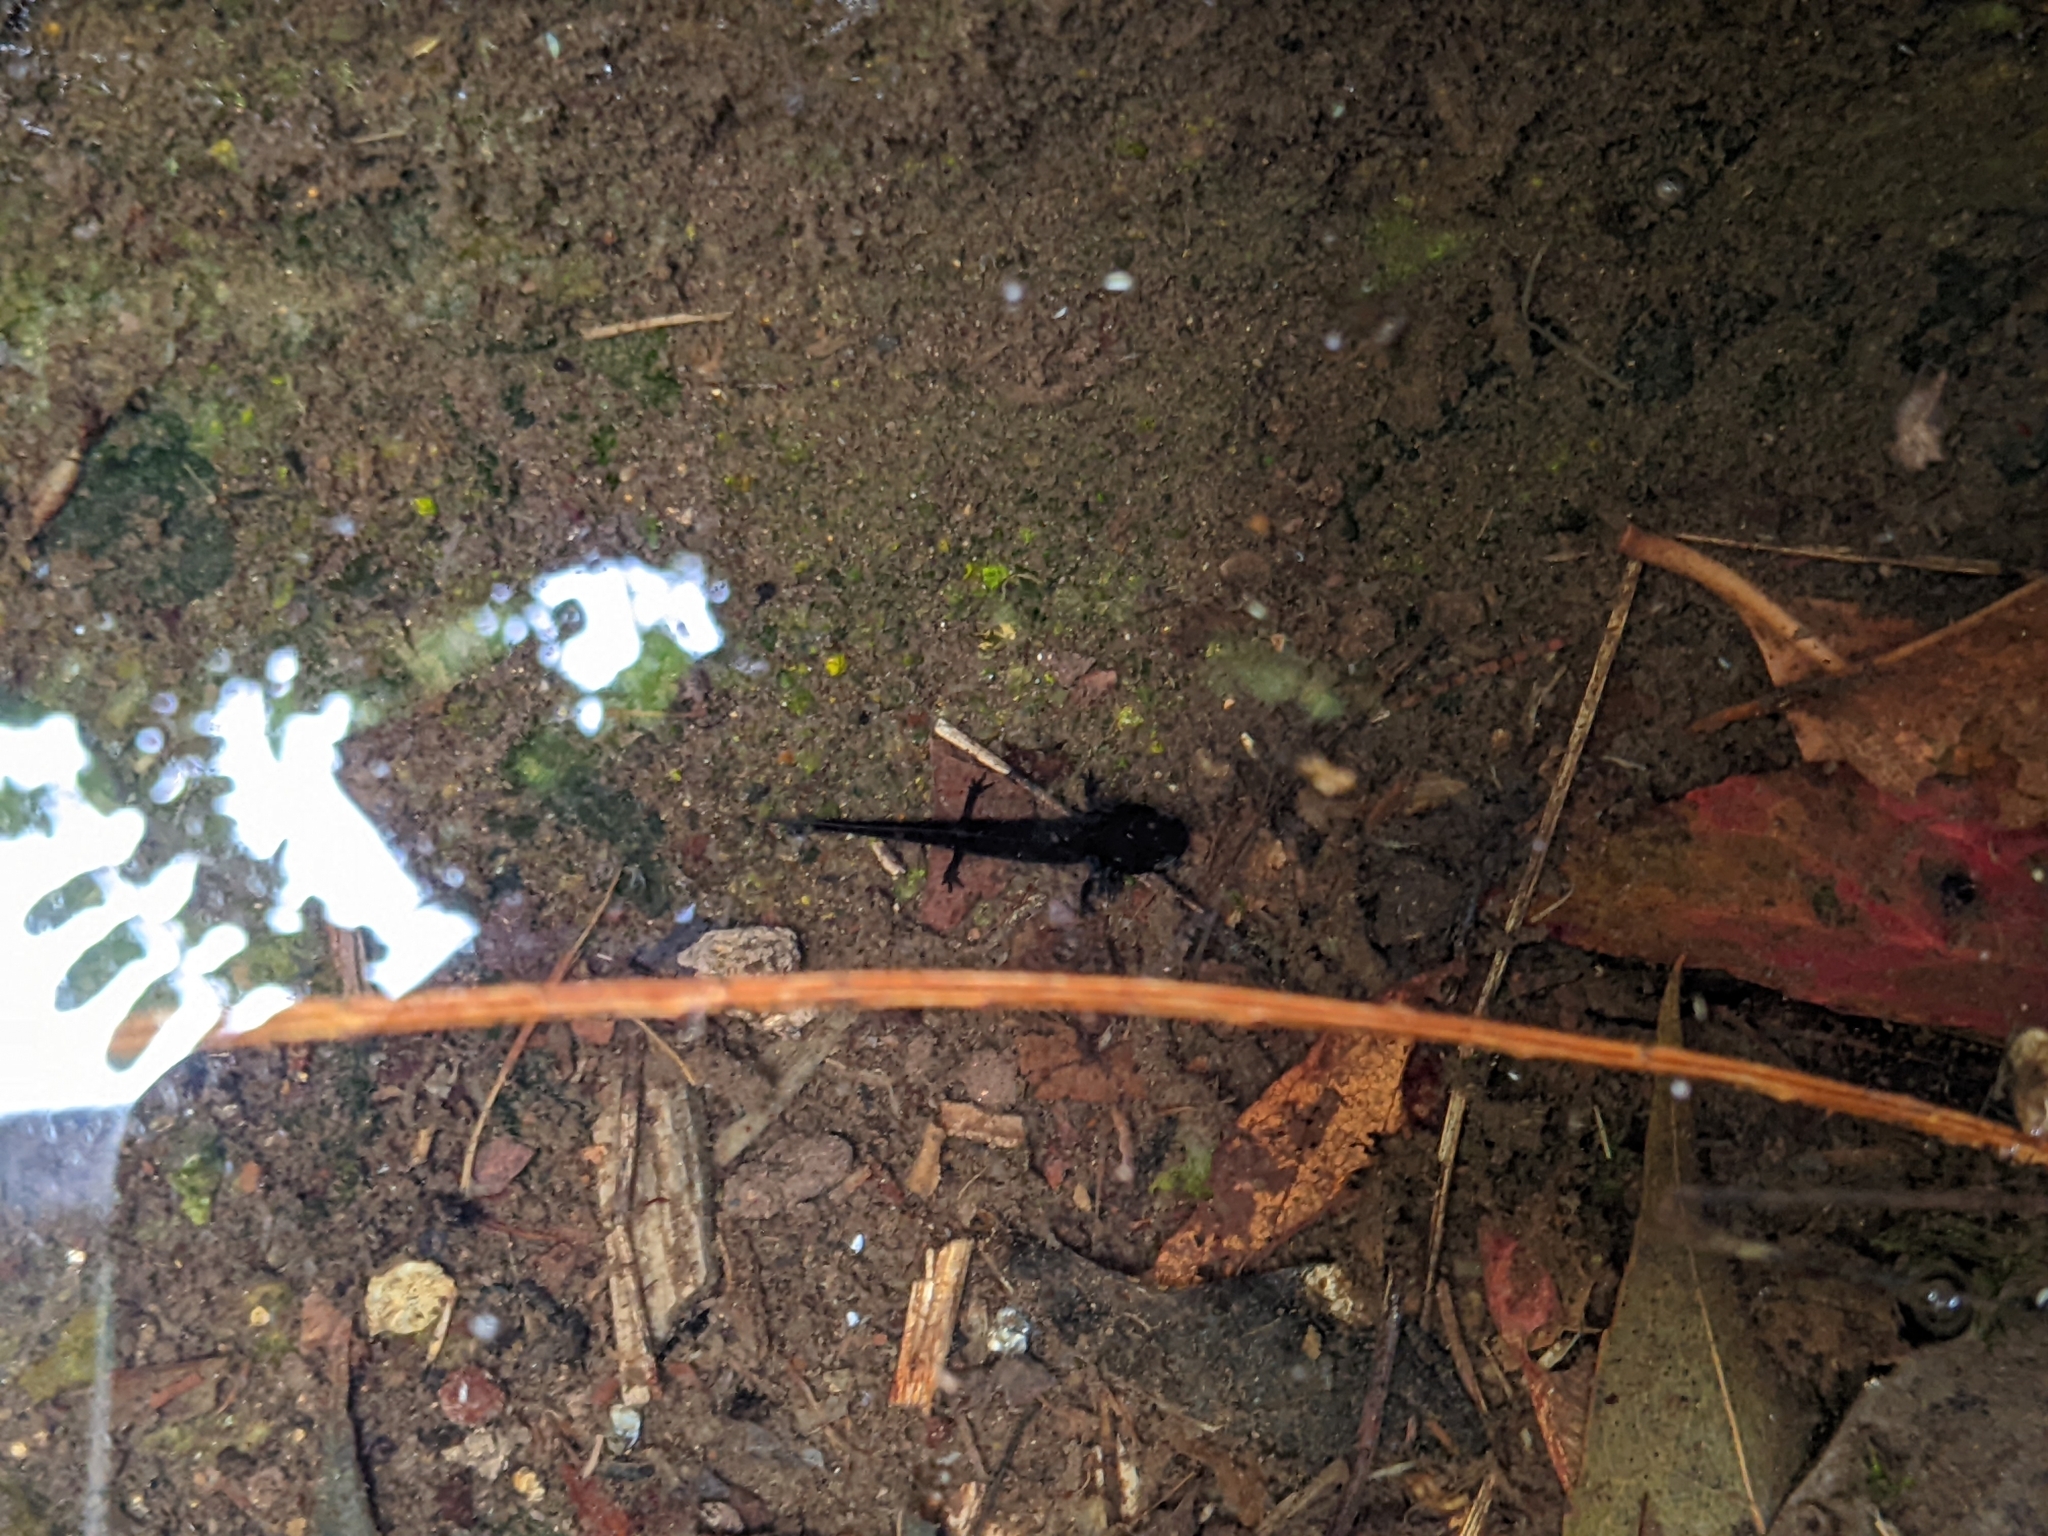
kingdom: Animalia
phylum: Chordata
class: Amphibia
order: Caudata
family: Salamandridae
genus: Cynops
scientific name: Cynops ensicauda
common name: Sword-tailed newt
